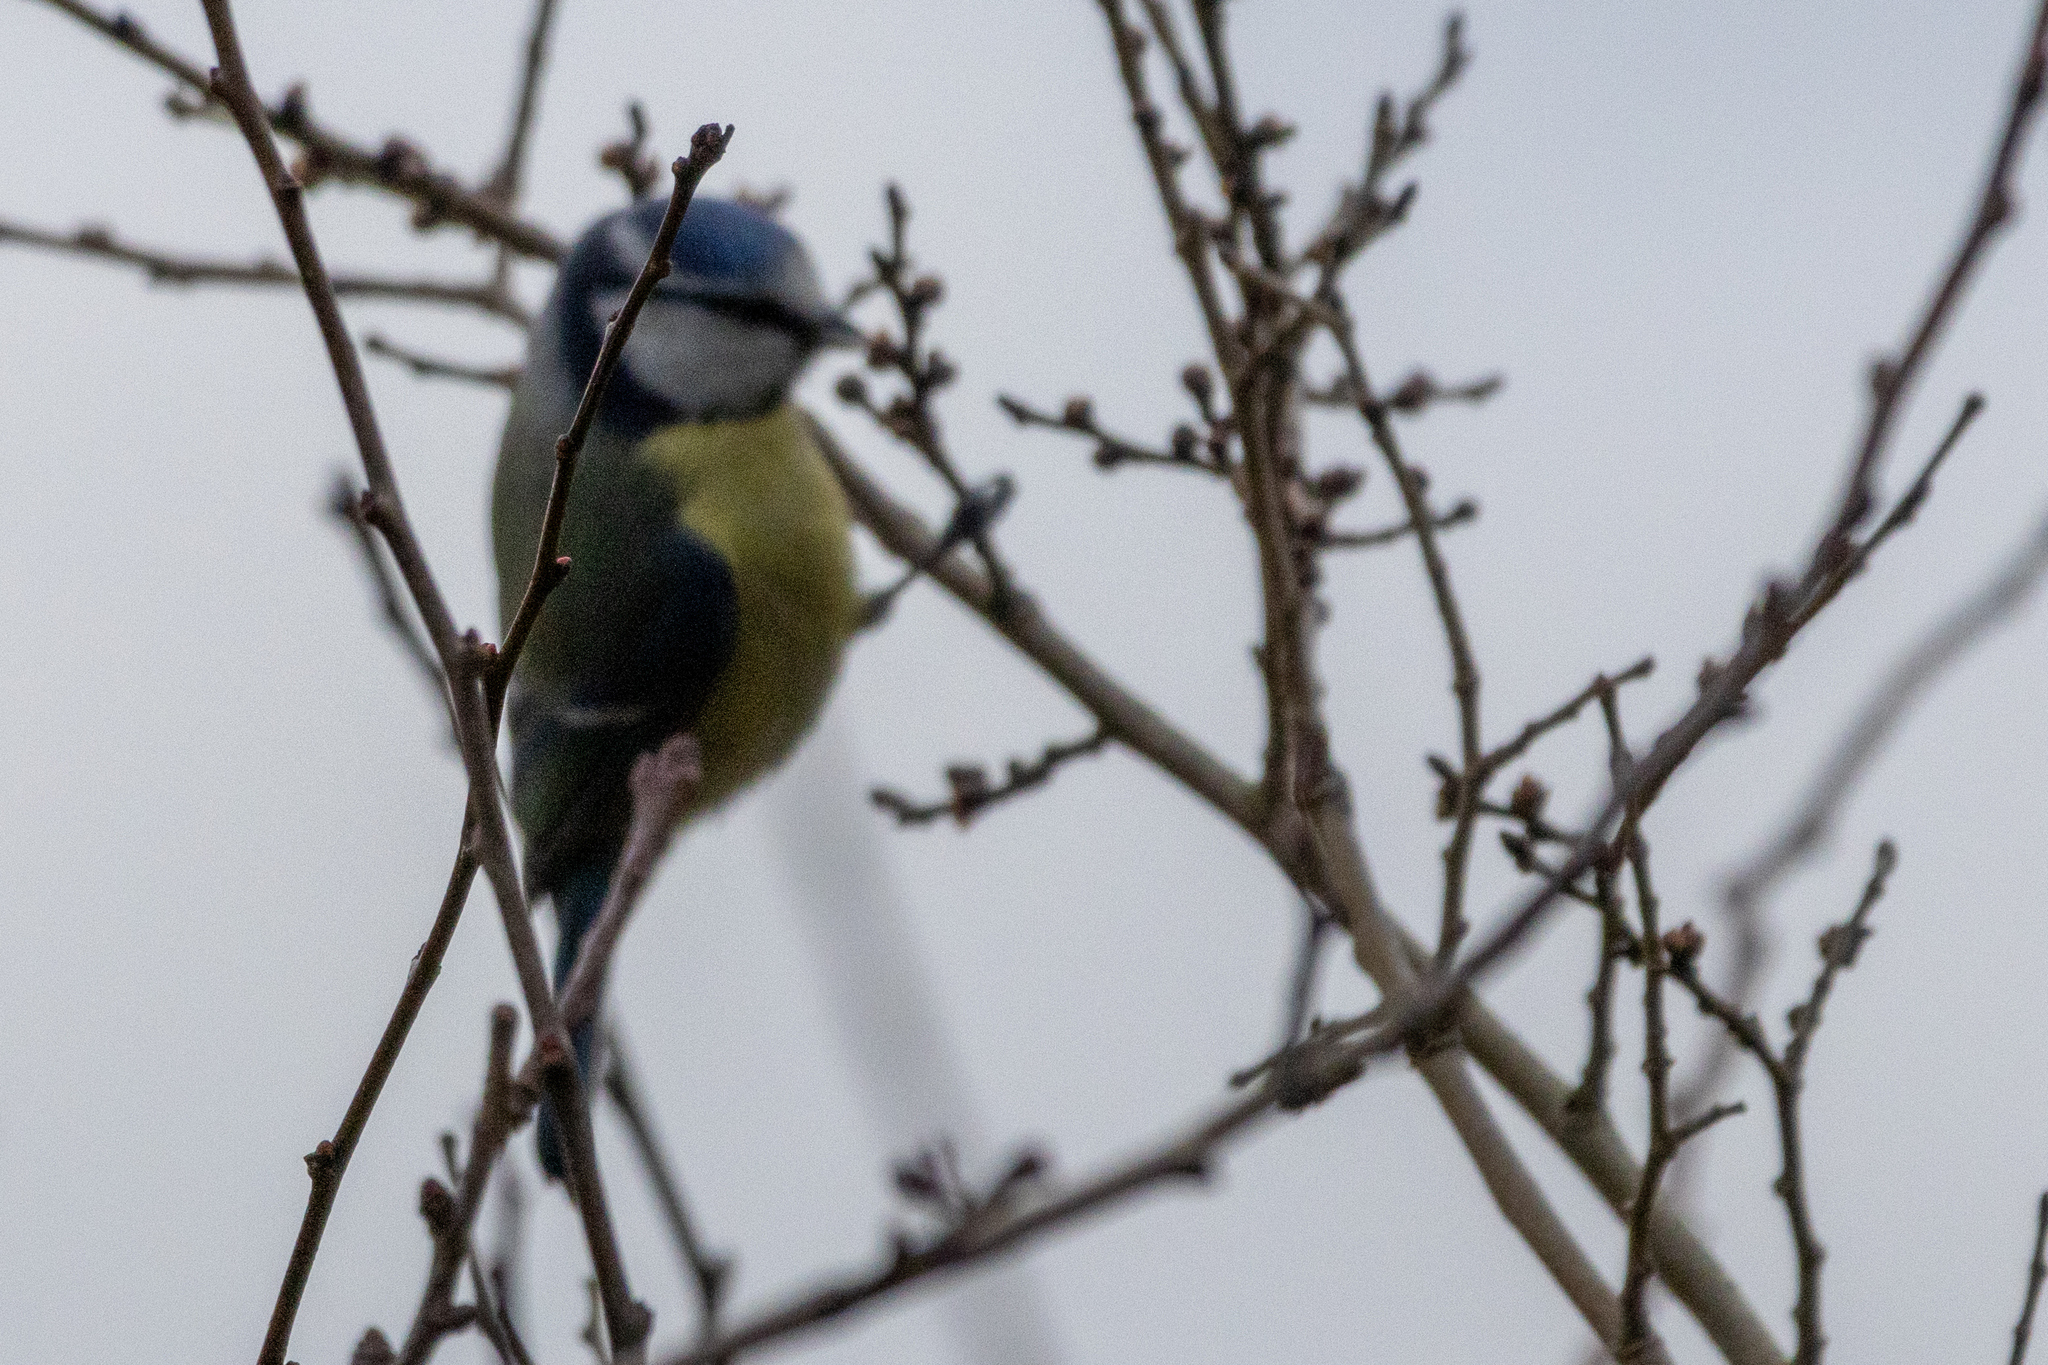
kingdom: Animalia
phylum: Chordata
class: Aves
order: Passeriformes
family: Paridae
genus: Cyanistes
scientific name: Cyanistes caeruleus
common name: Eurasian blue tit
